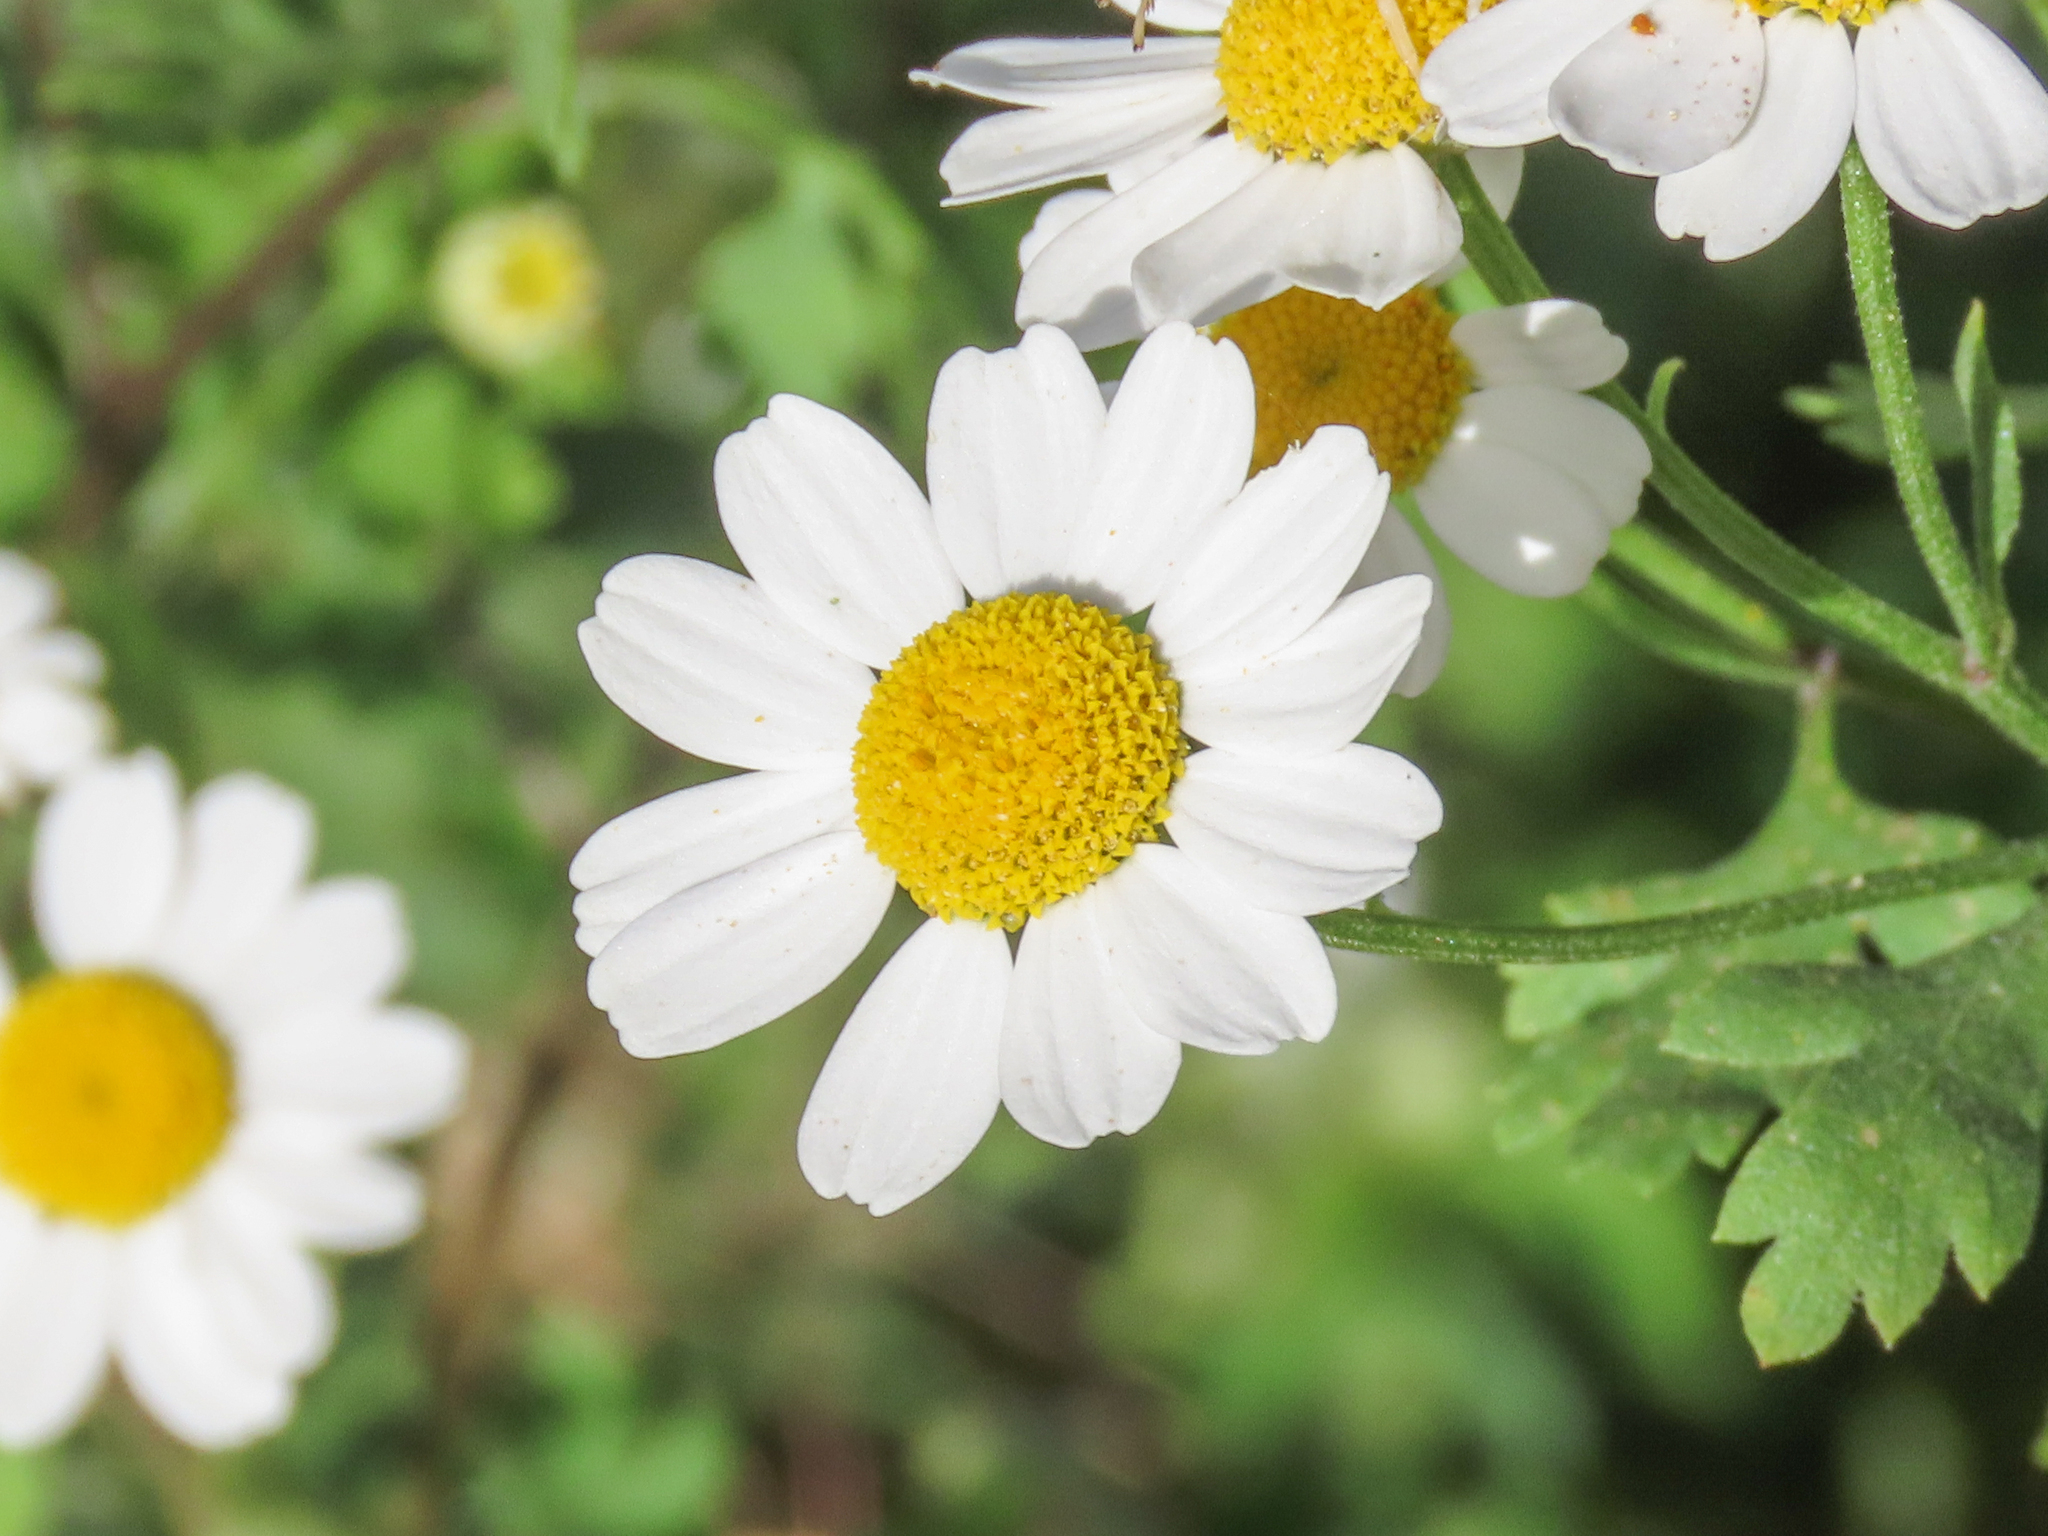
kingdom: Plantae
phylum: Tracheophyta
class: Magnoliopsida
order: Asterales
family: Asteraceae
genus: Tanacetum
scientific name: Tanacetum parthenium
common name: Feverfew
